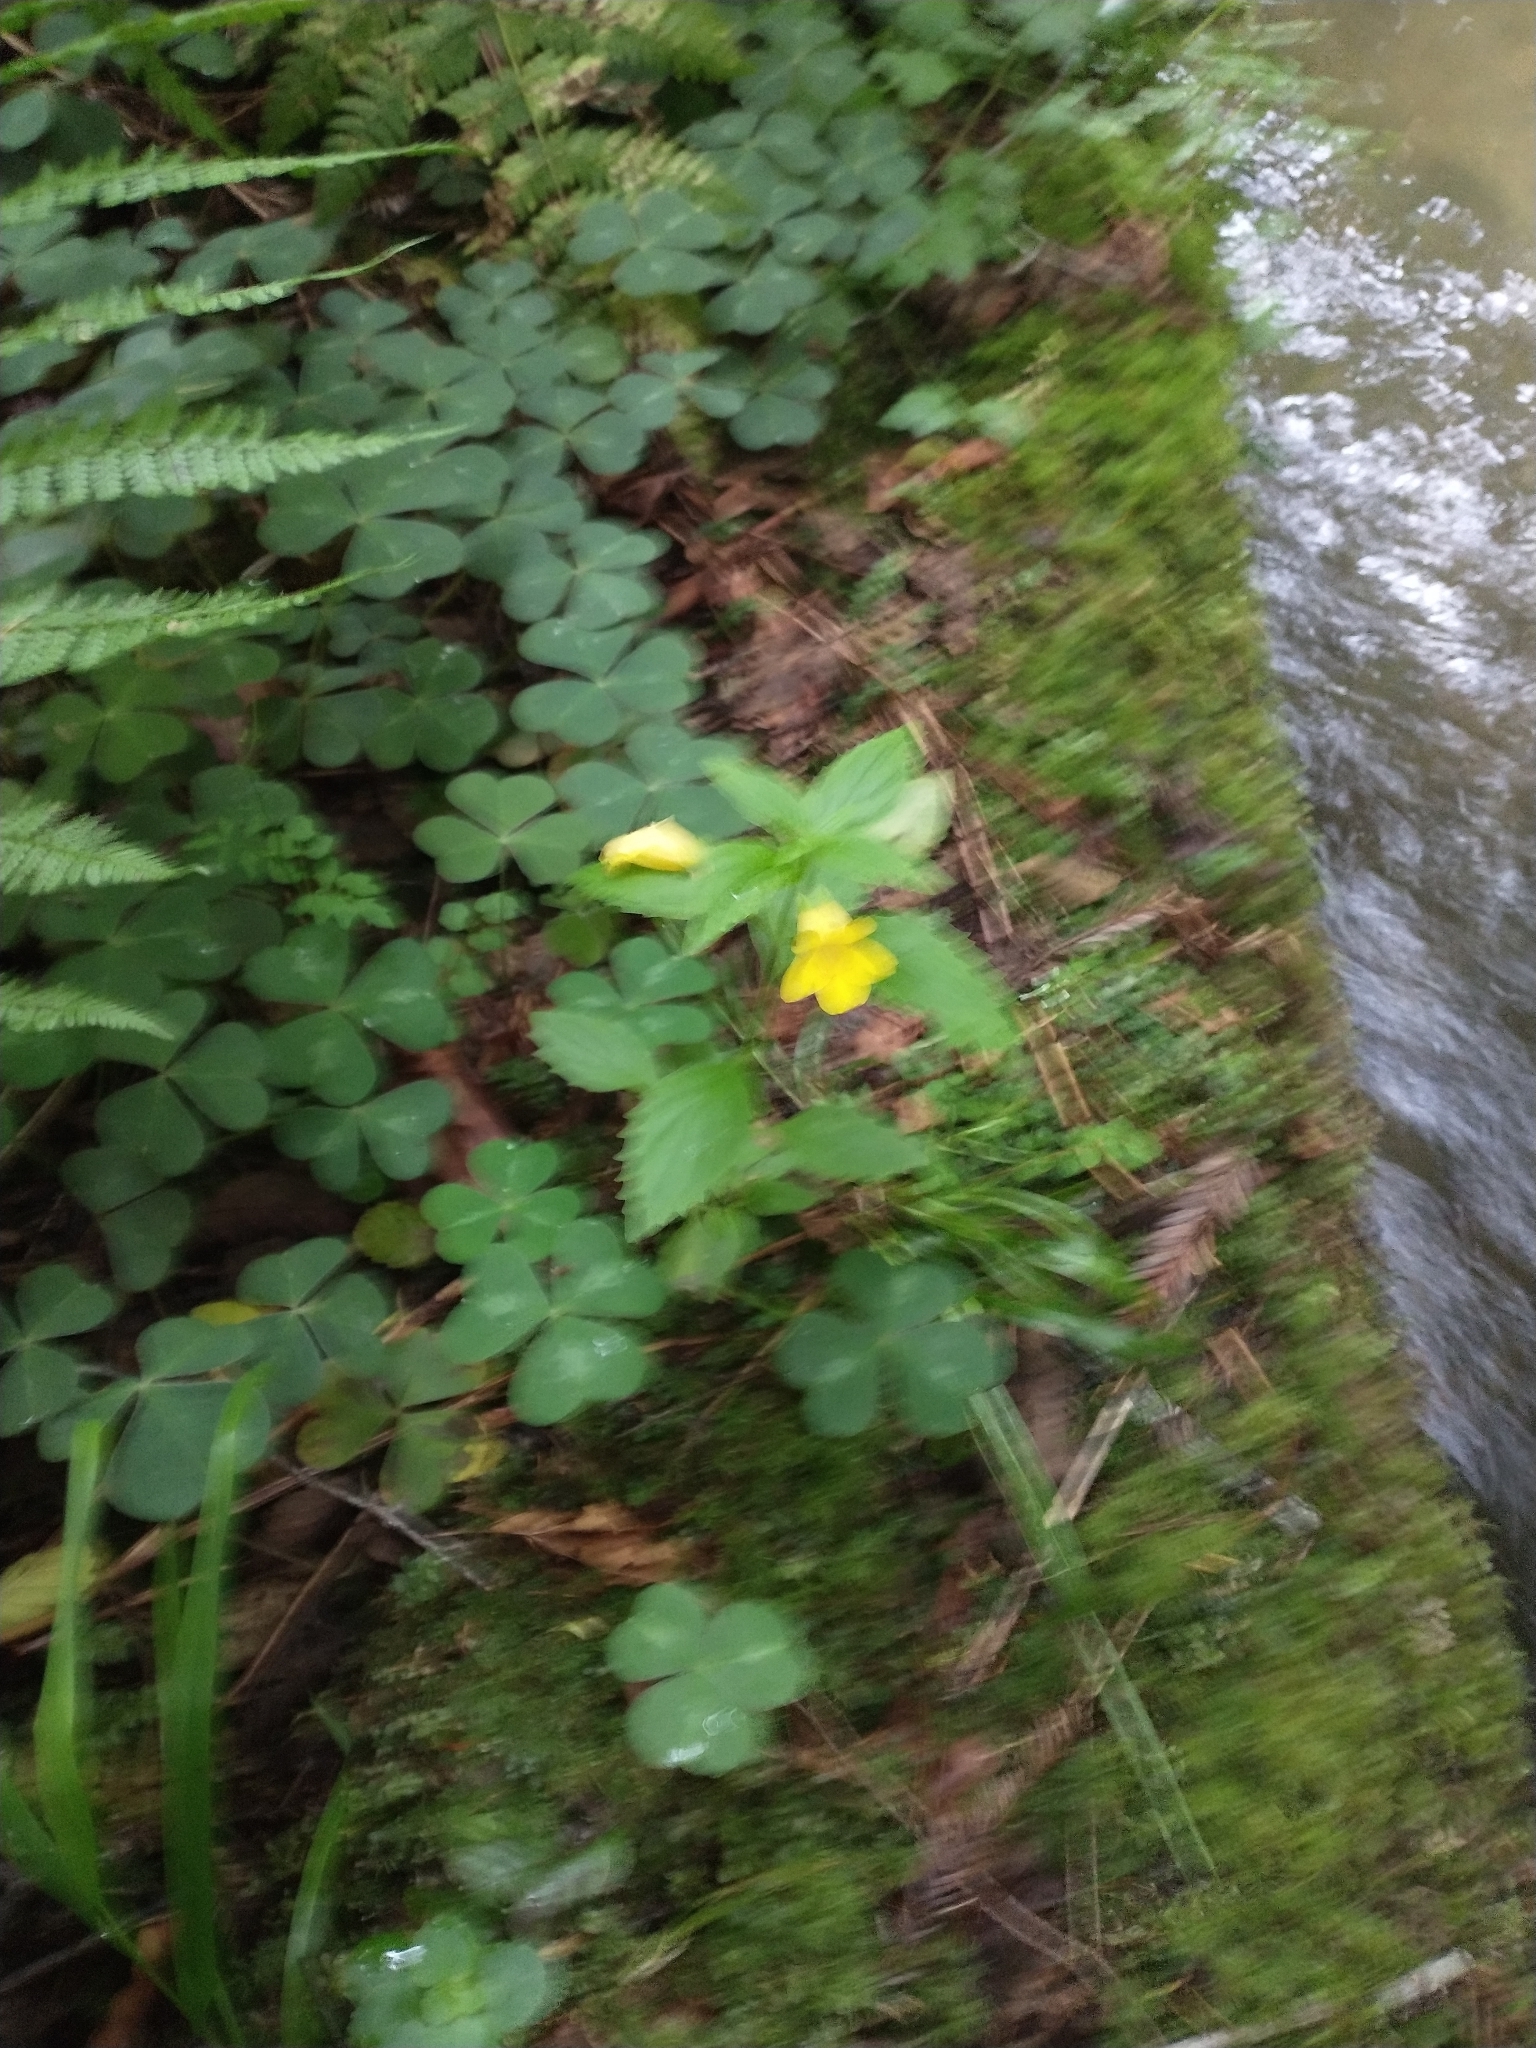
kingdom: Plantae
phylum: Tracheophyta
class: Magnoliopsida
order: Lamiales
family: Phrymaceae
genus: Erythranthe
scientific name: Erythranthe dentata
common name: Coastal monkeyflower
